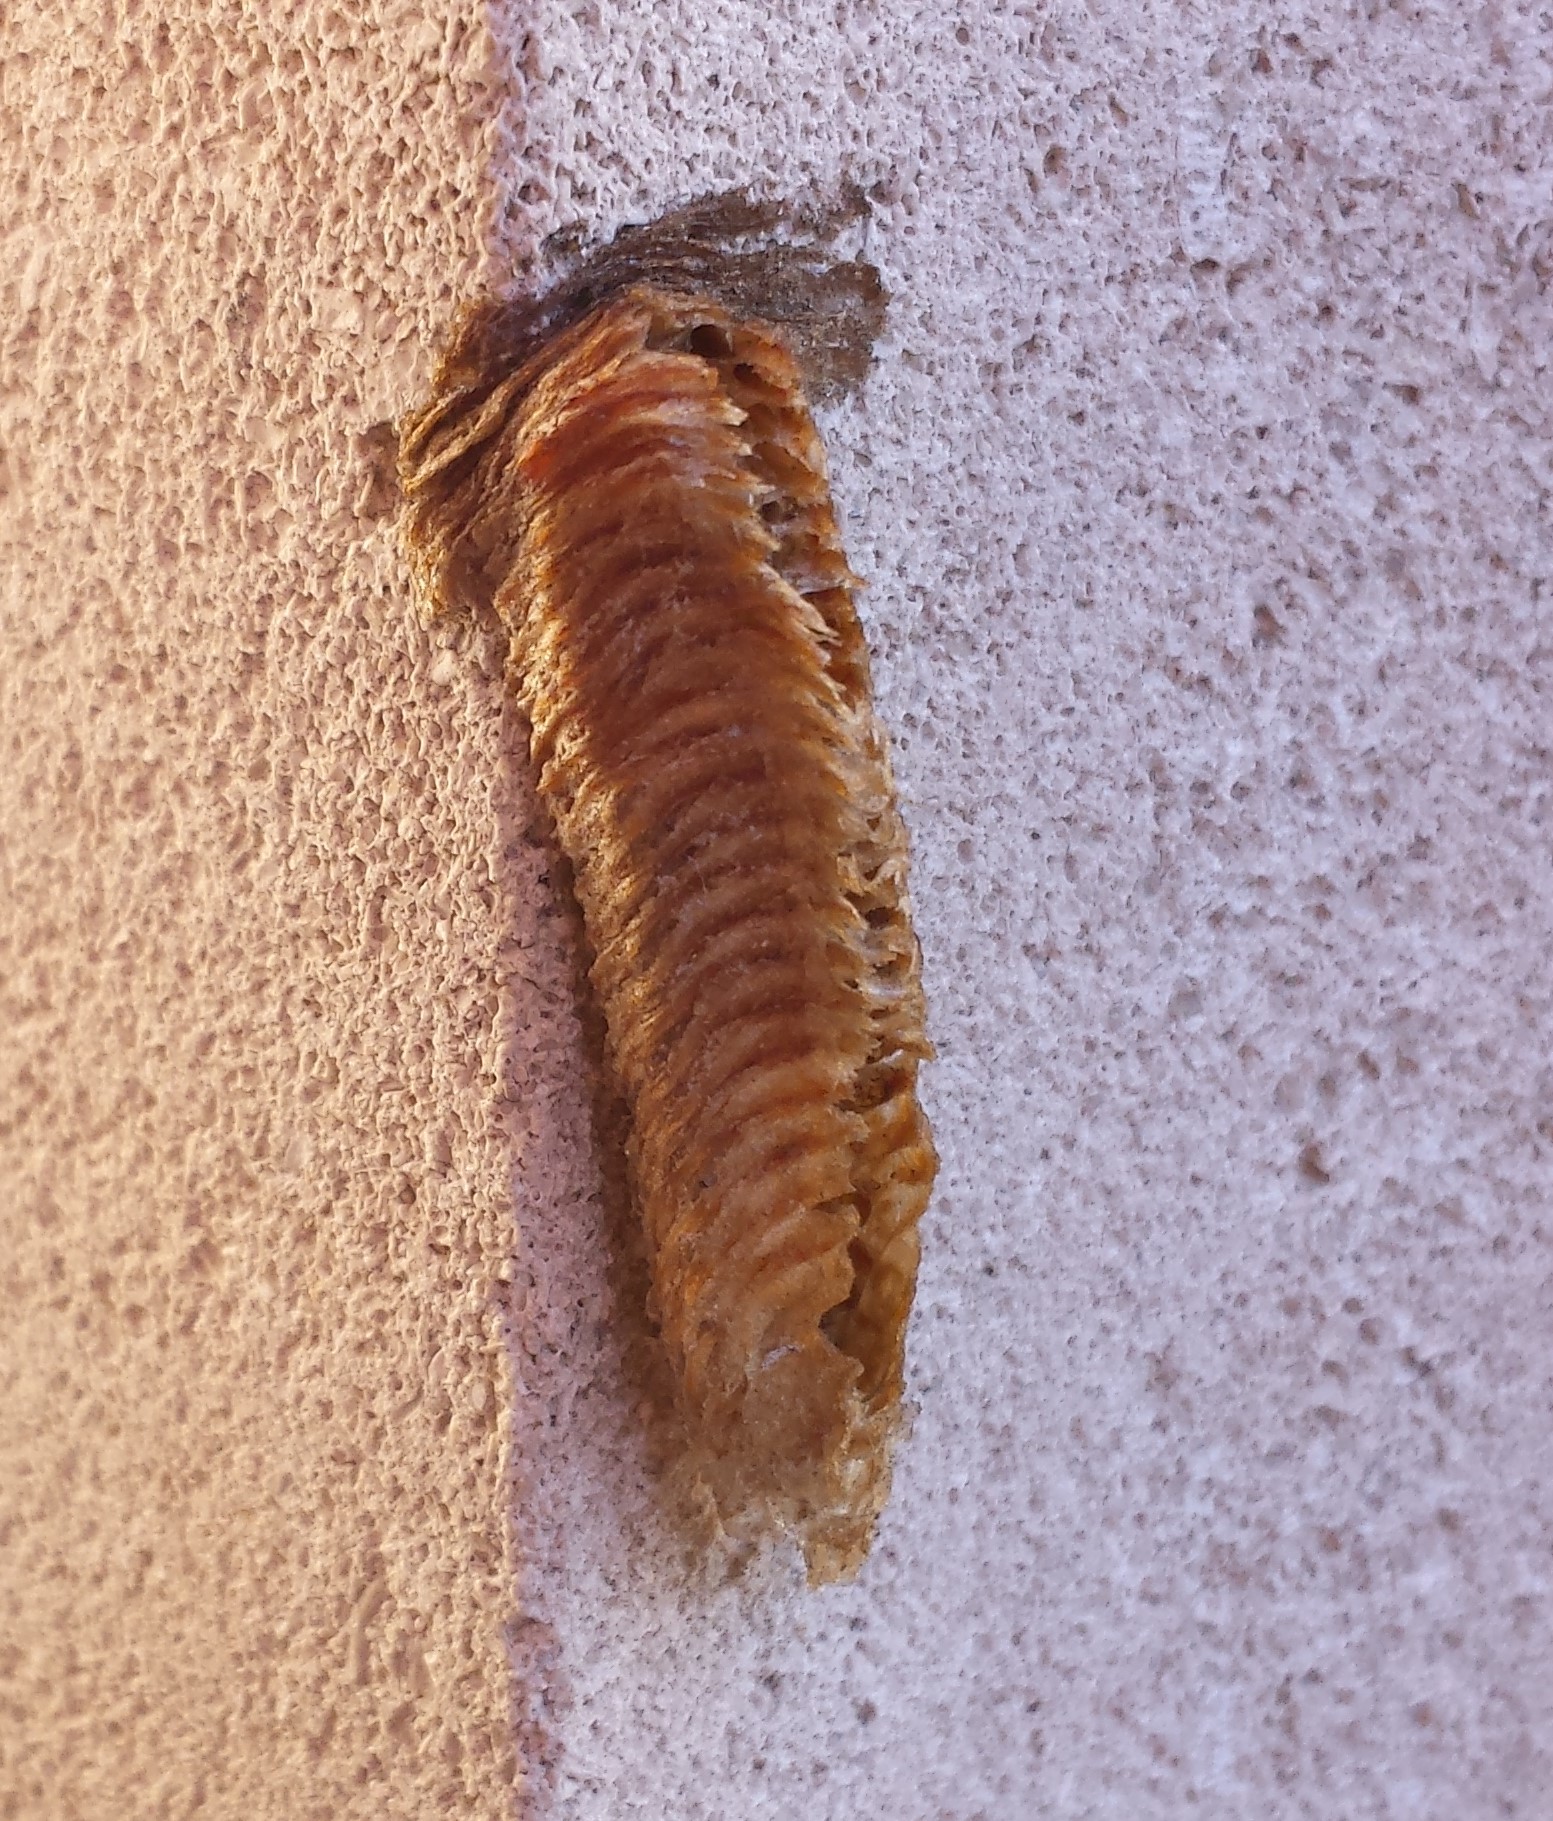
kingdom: Animalia
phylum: Arthropoda
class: Insecta
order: Mantodea
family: Mantidae
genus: Tenodera
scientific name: Tenodera angustipennis
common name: Asian mantis
